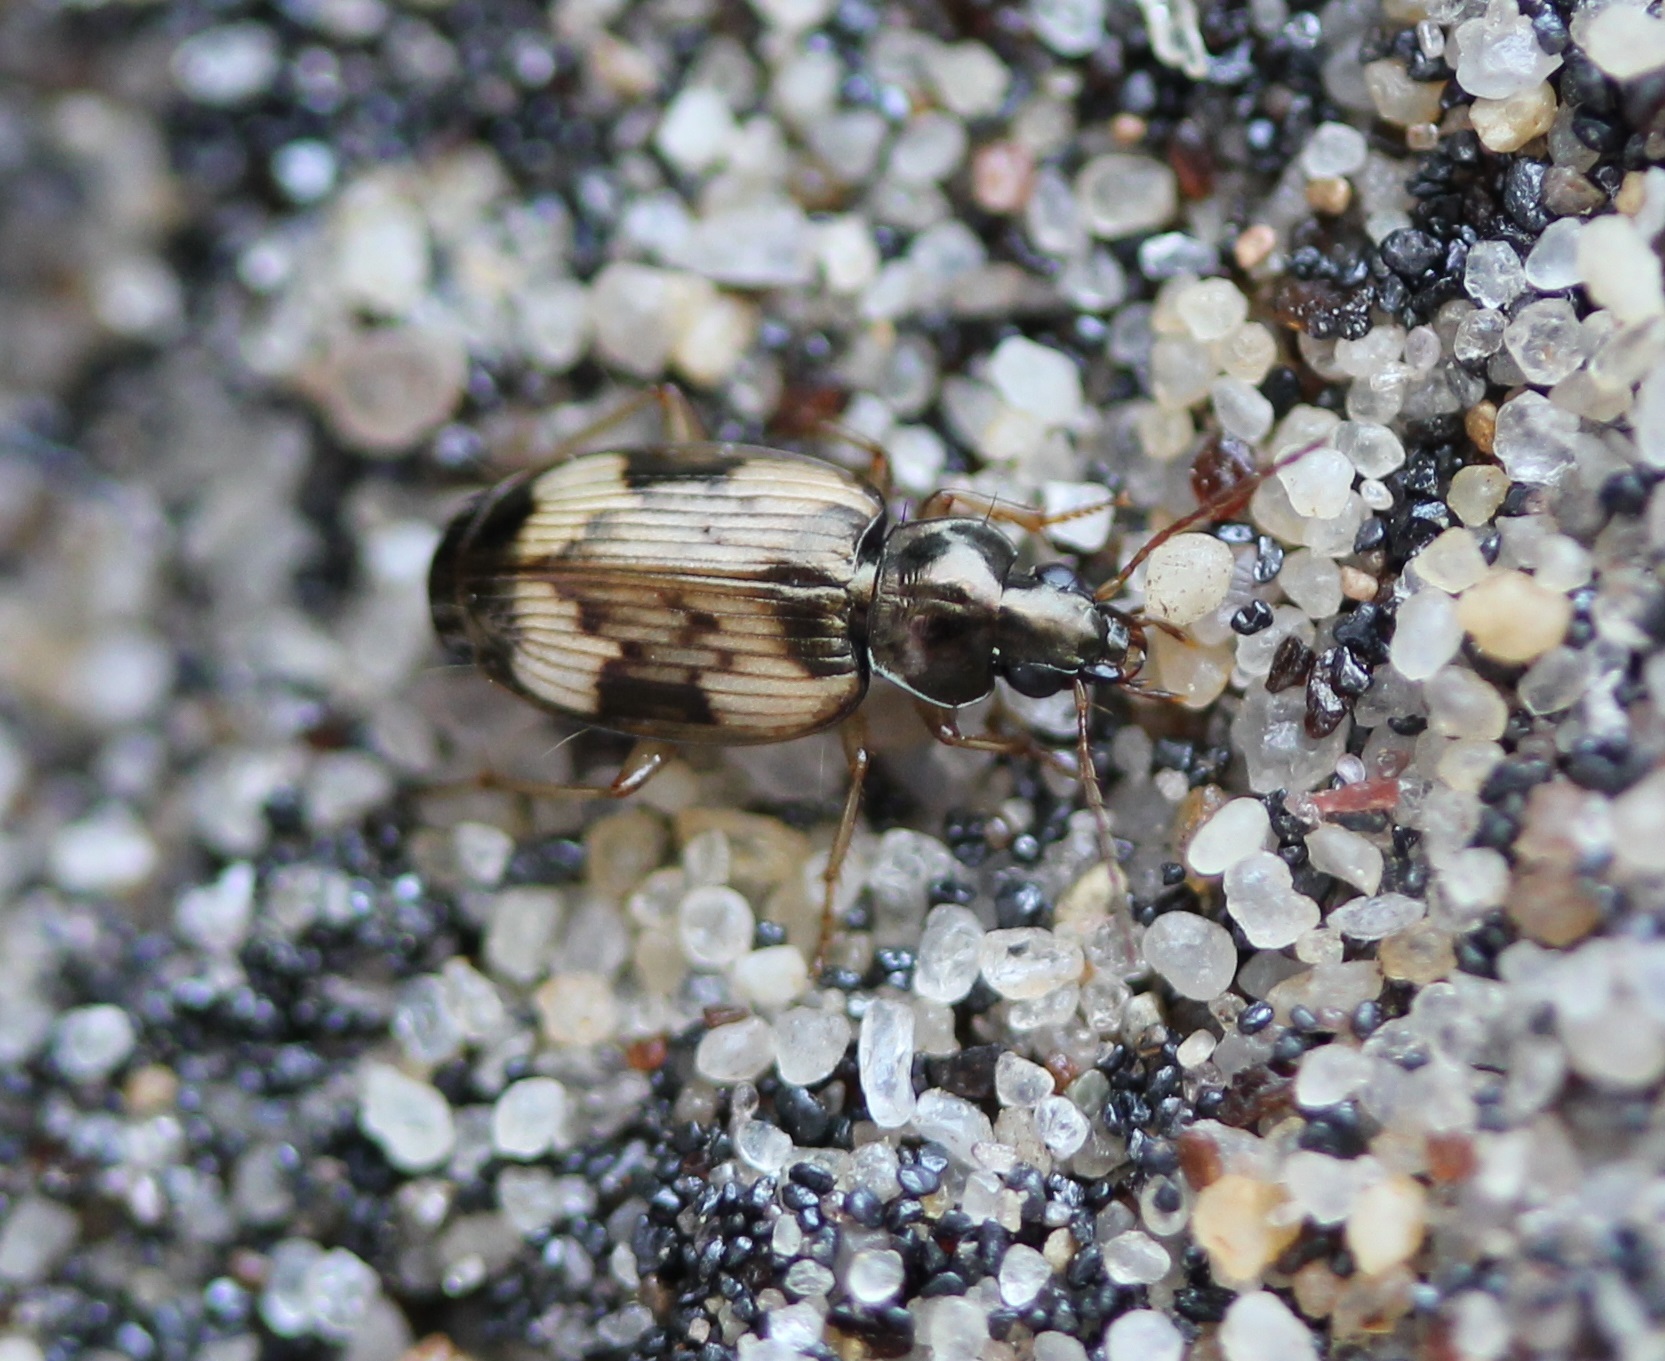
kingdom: Animalia
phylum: Arthropoda
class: Insecta
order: Coleoptera
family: Carabidae
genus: Tetragonoderus
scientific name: Tetragonoderus fasciatus
